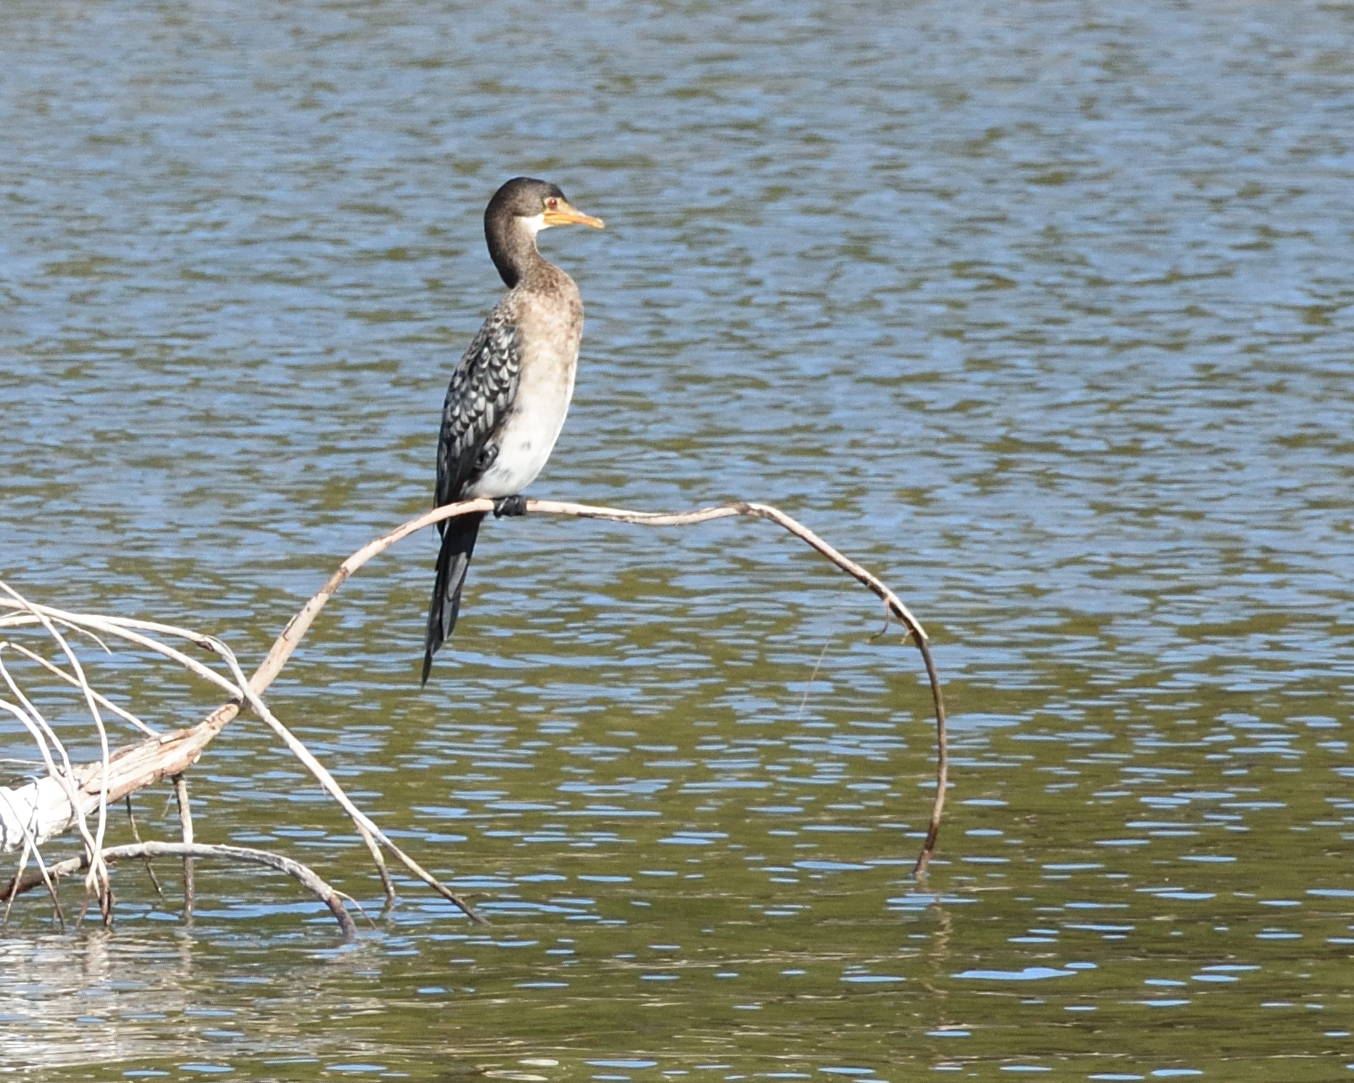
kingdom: Animalia
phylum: Chordata
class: Aves
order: Suliformes
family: Phalacrocoracidae
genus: Microcarbo
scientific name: Microcarbo africanus
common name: Long-tailed cormorant
